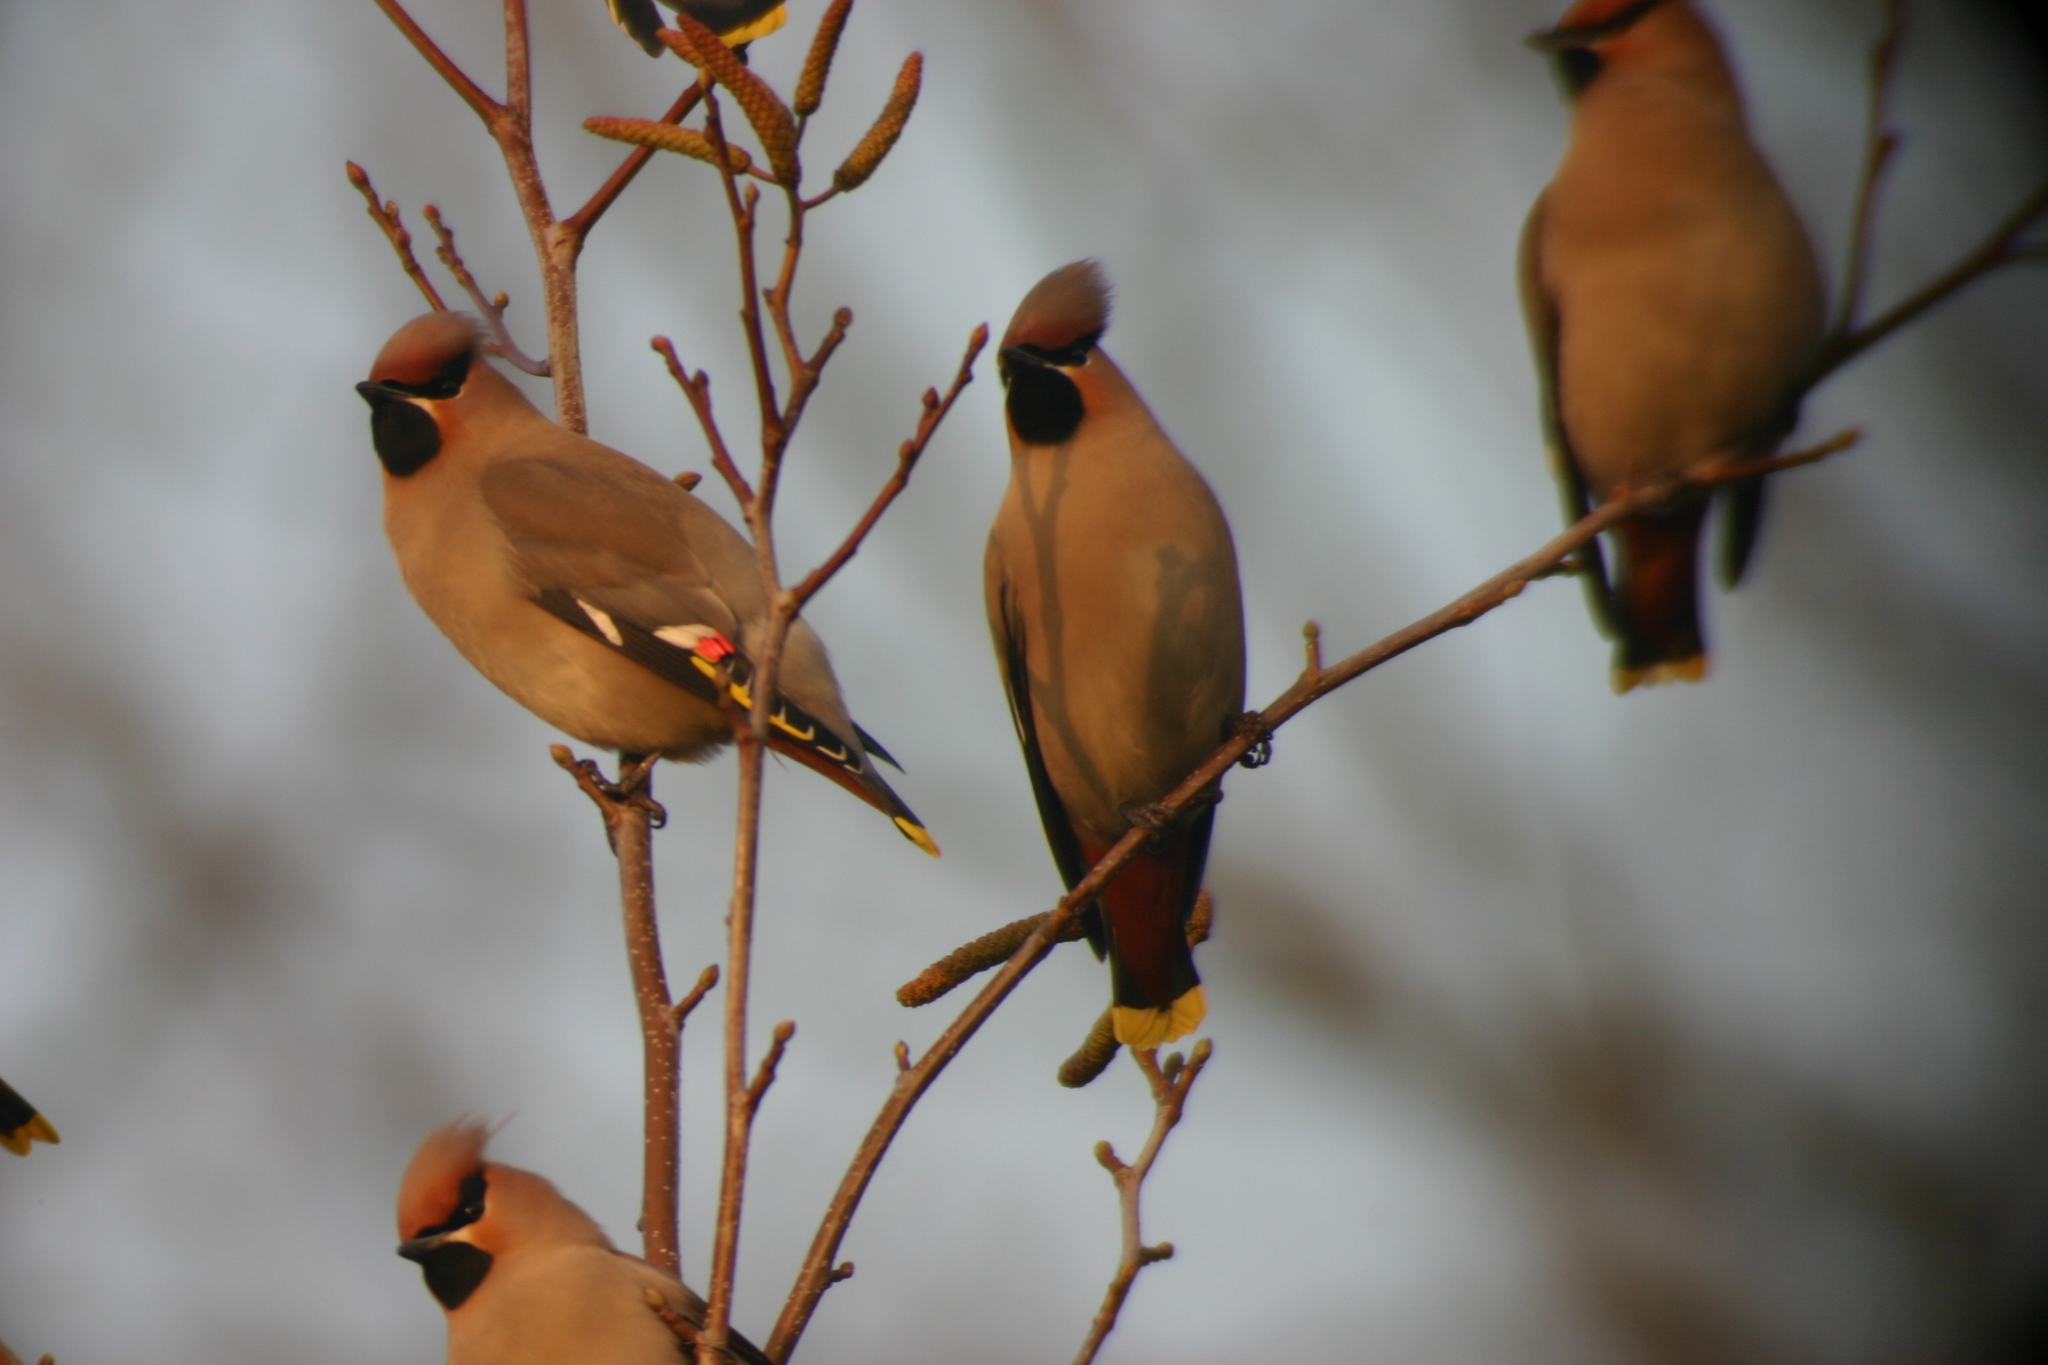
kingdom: Animalia
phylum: Chordata
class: Aves
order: Passeriformes
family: Bombycillidae
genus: Bombycilla
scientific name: Bombycilla garrulus
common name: Bohemian waxwing
